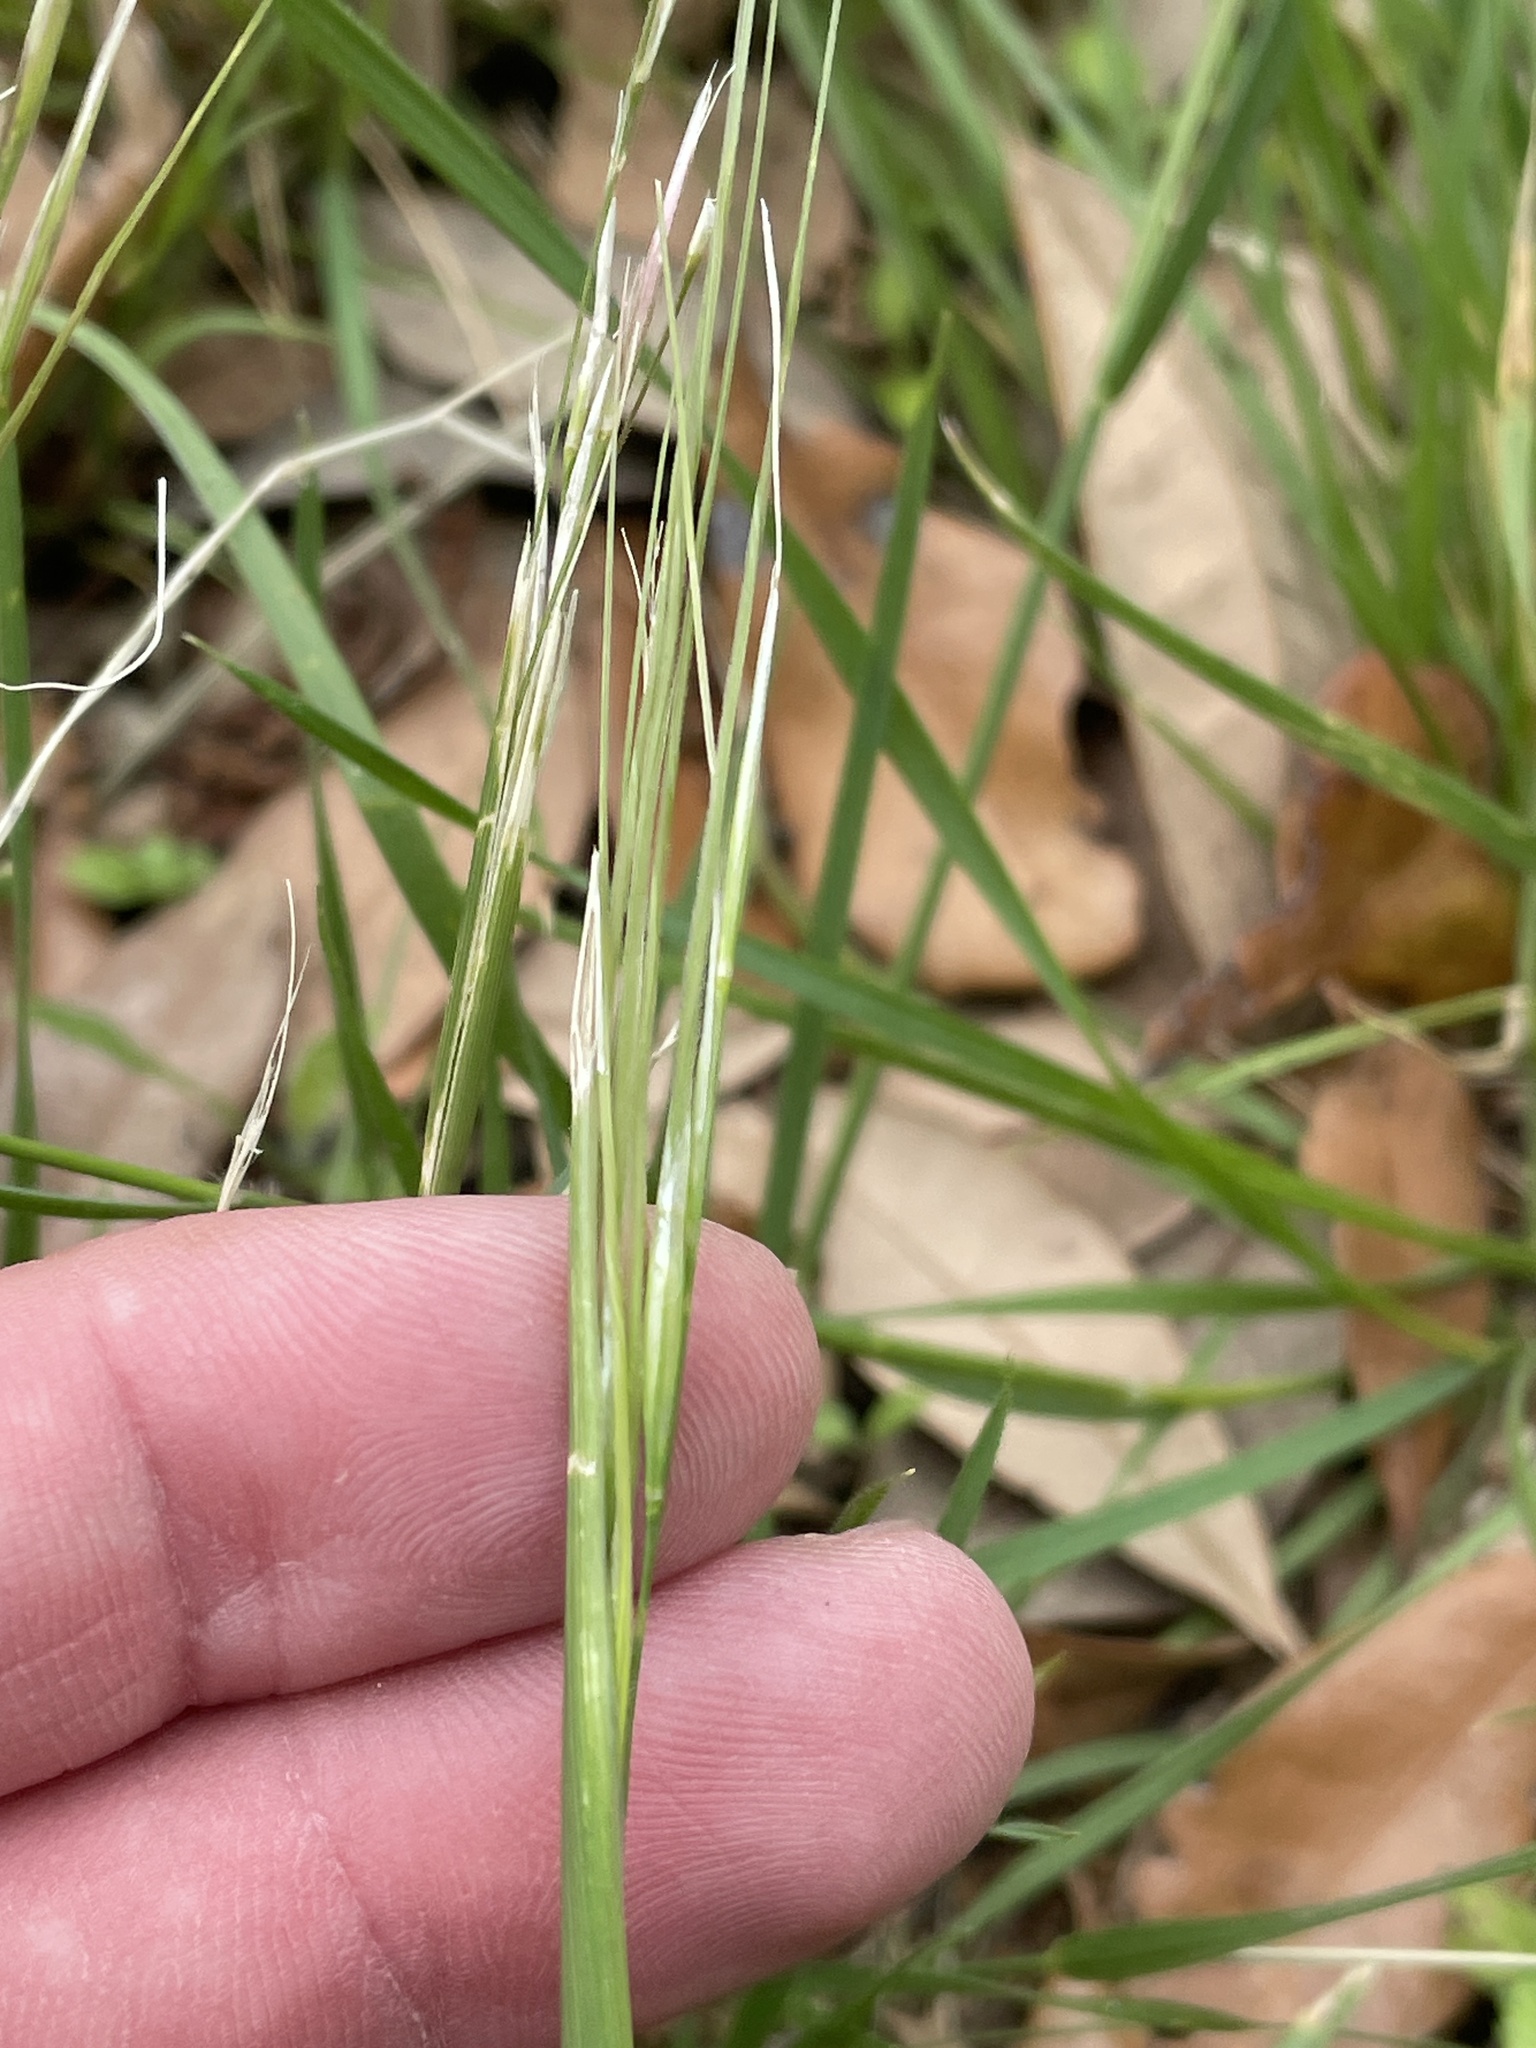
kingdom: Plantae
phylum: Tracheophyta
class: Liliopsida
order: Poales
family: Poaceae
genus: Nassella
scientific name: Nassella leucotricha
